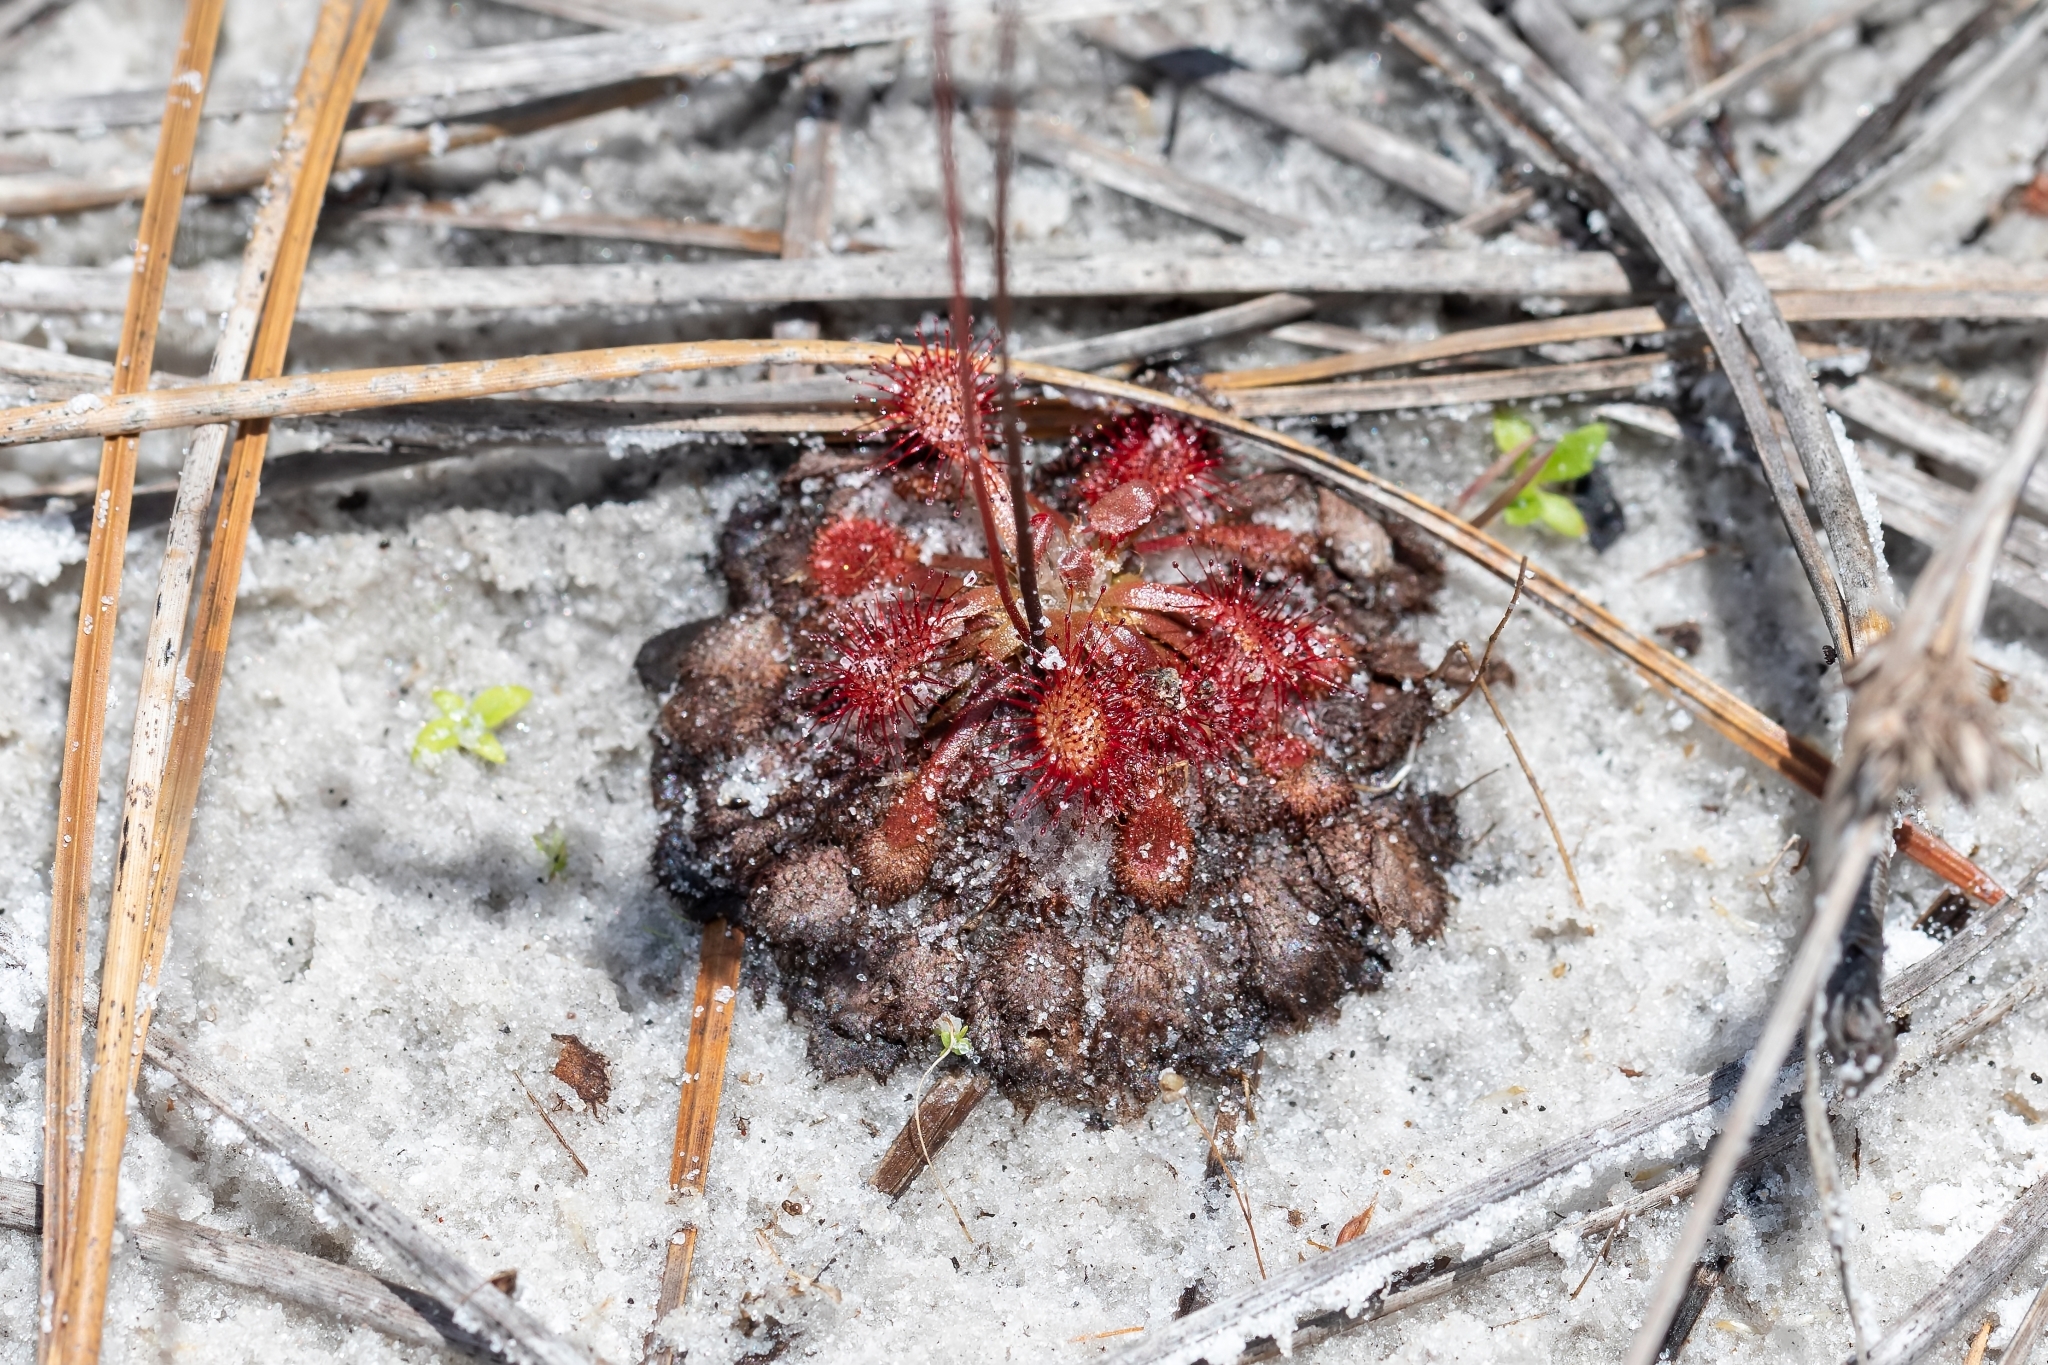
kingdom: Plantae
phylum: Tracheophyta
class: Magnoliopsida
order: Caryophyllales
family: Droseraceae
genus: Drosera
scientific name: Drosera capillaris
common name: Pink sundew
